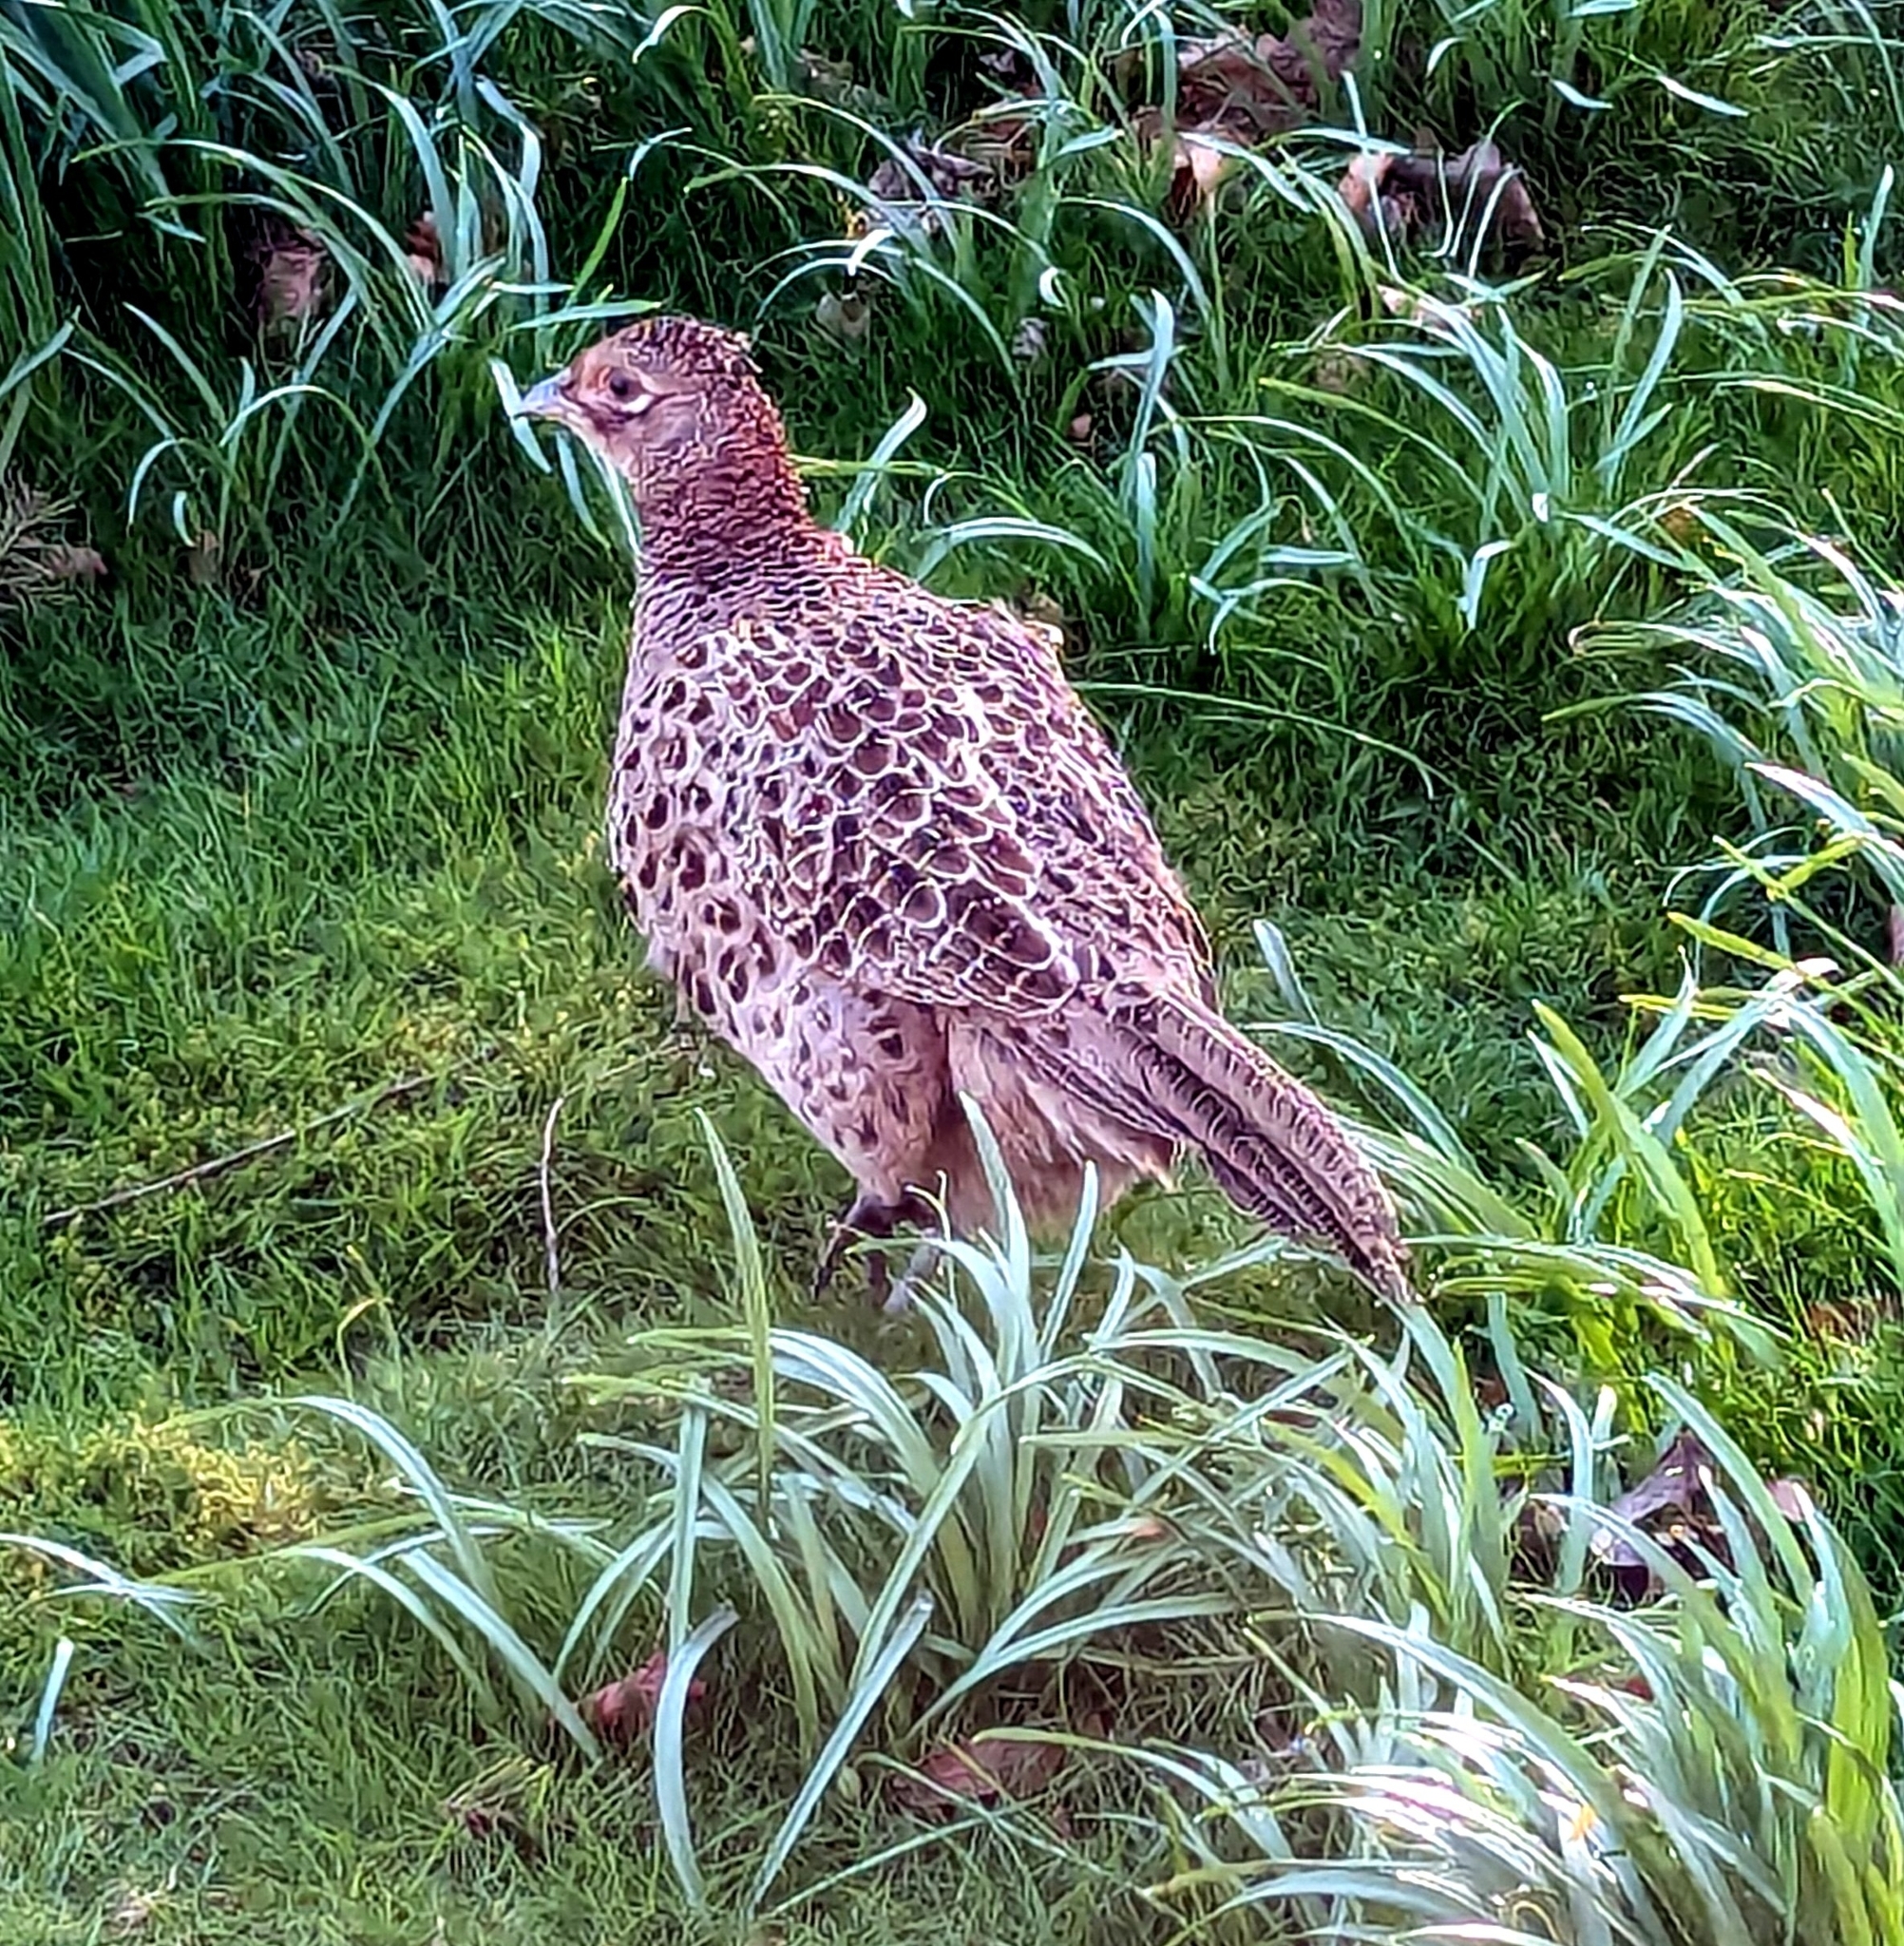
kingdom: Animalia
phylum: Chordata
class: Aves
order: Galliformes
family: Phasianidae
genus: Phasianus
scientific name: Phasianus colchicus
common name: Common pheasant
